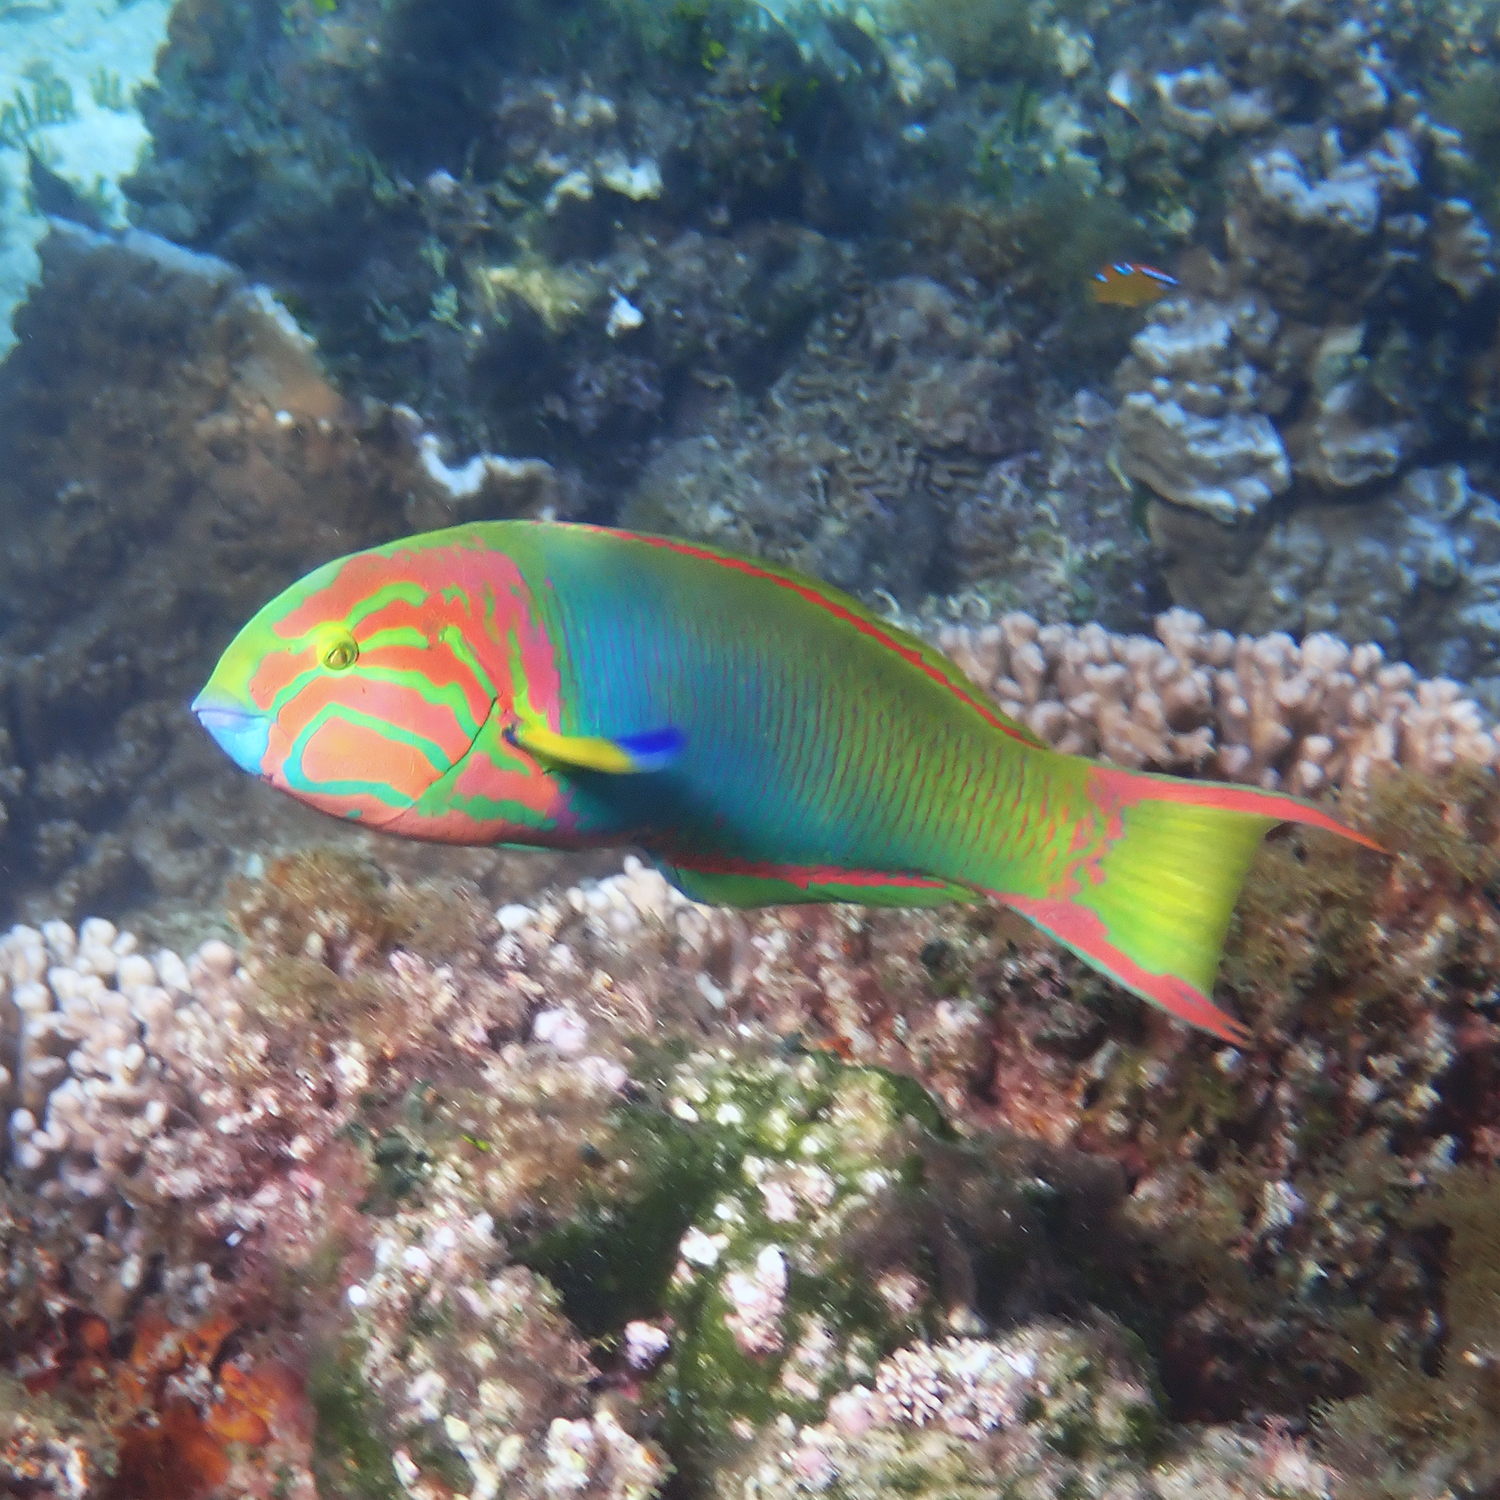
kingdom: Animalia
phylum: Chordata
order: Perciformes
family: Labridae
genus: Thalassoma
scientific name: Thalassoma lutescens
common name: Green moon wrasse
